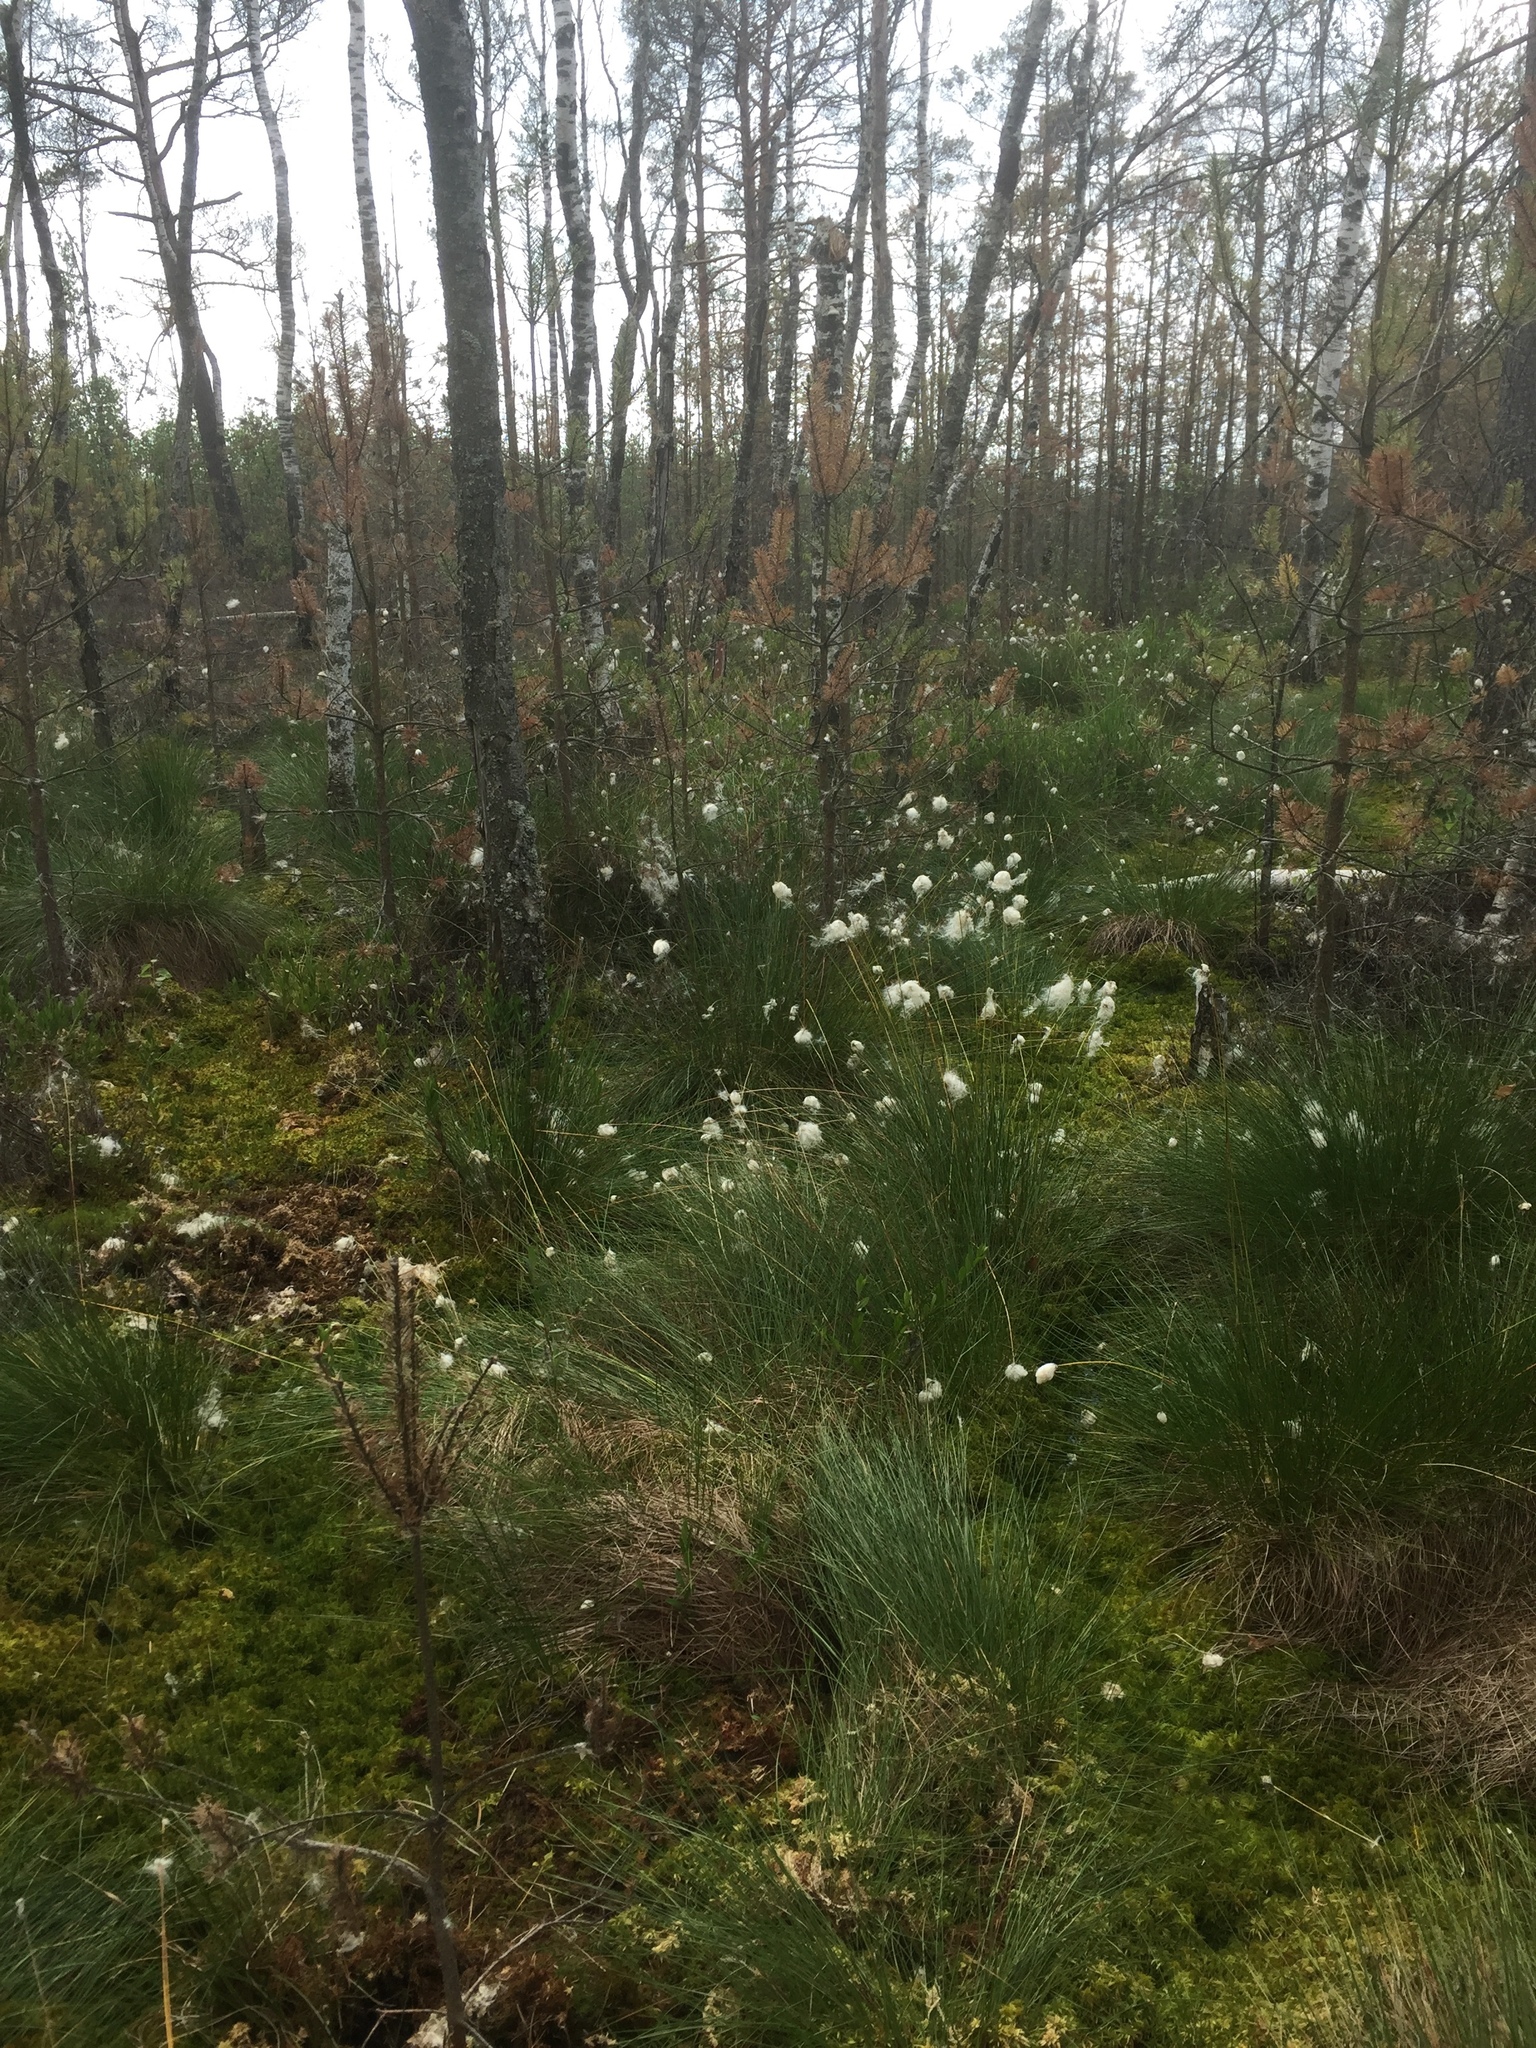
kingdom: Plantae
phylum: Tracheophyta
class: Liliopsida
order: Poales
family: Cyperaceae
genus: Eriophorum
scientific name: Eriophorum vaginatum
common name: Hare's-tail cottongrass
